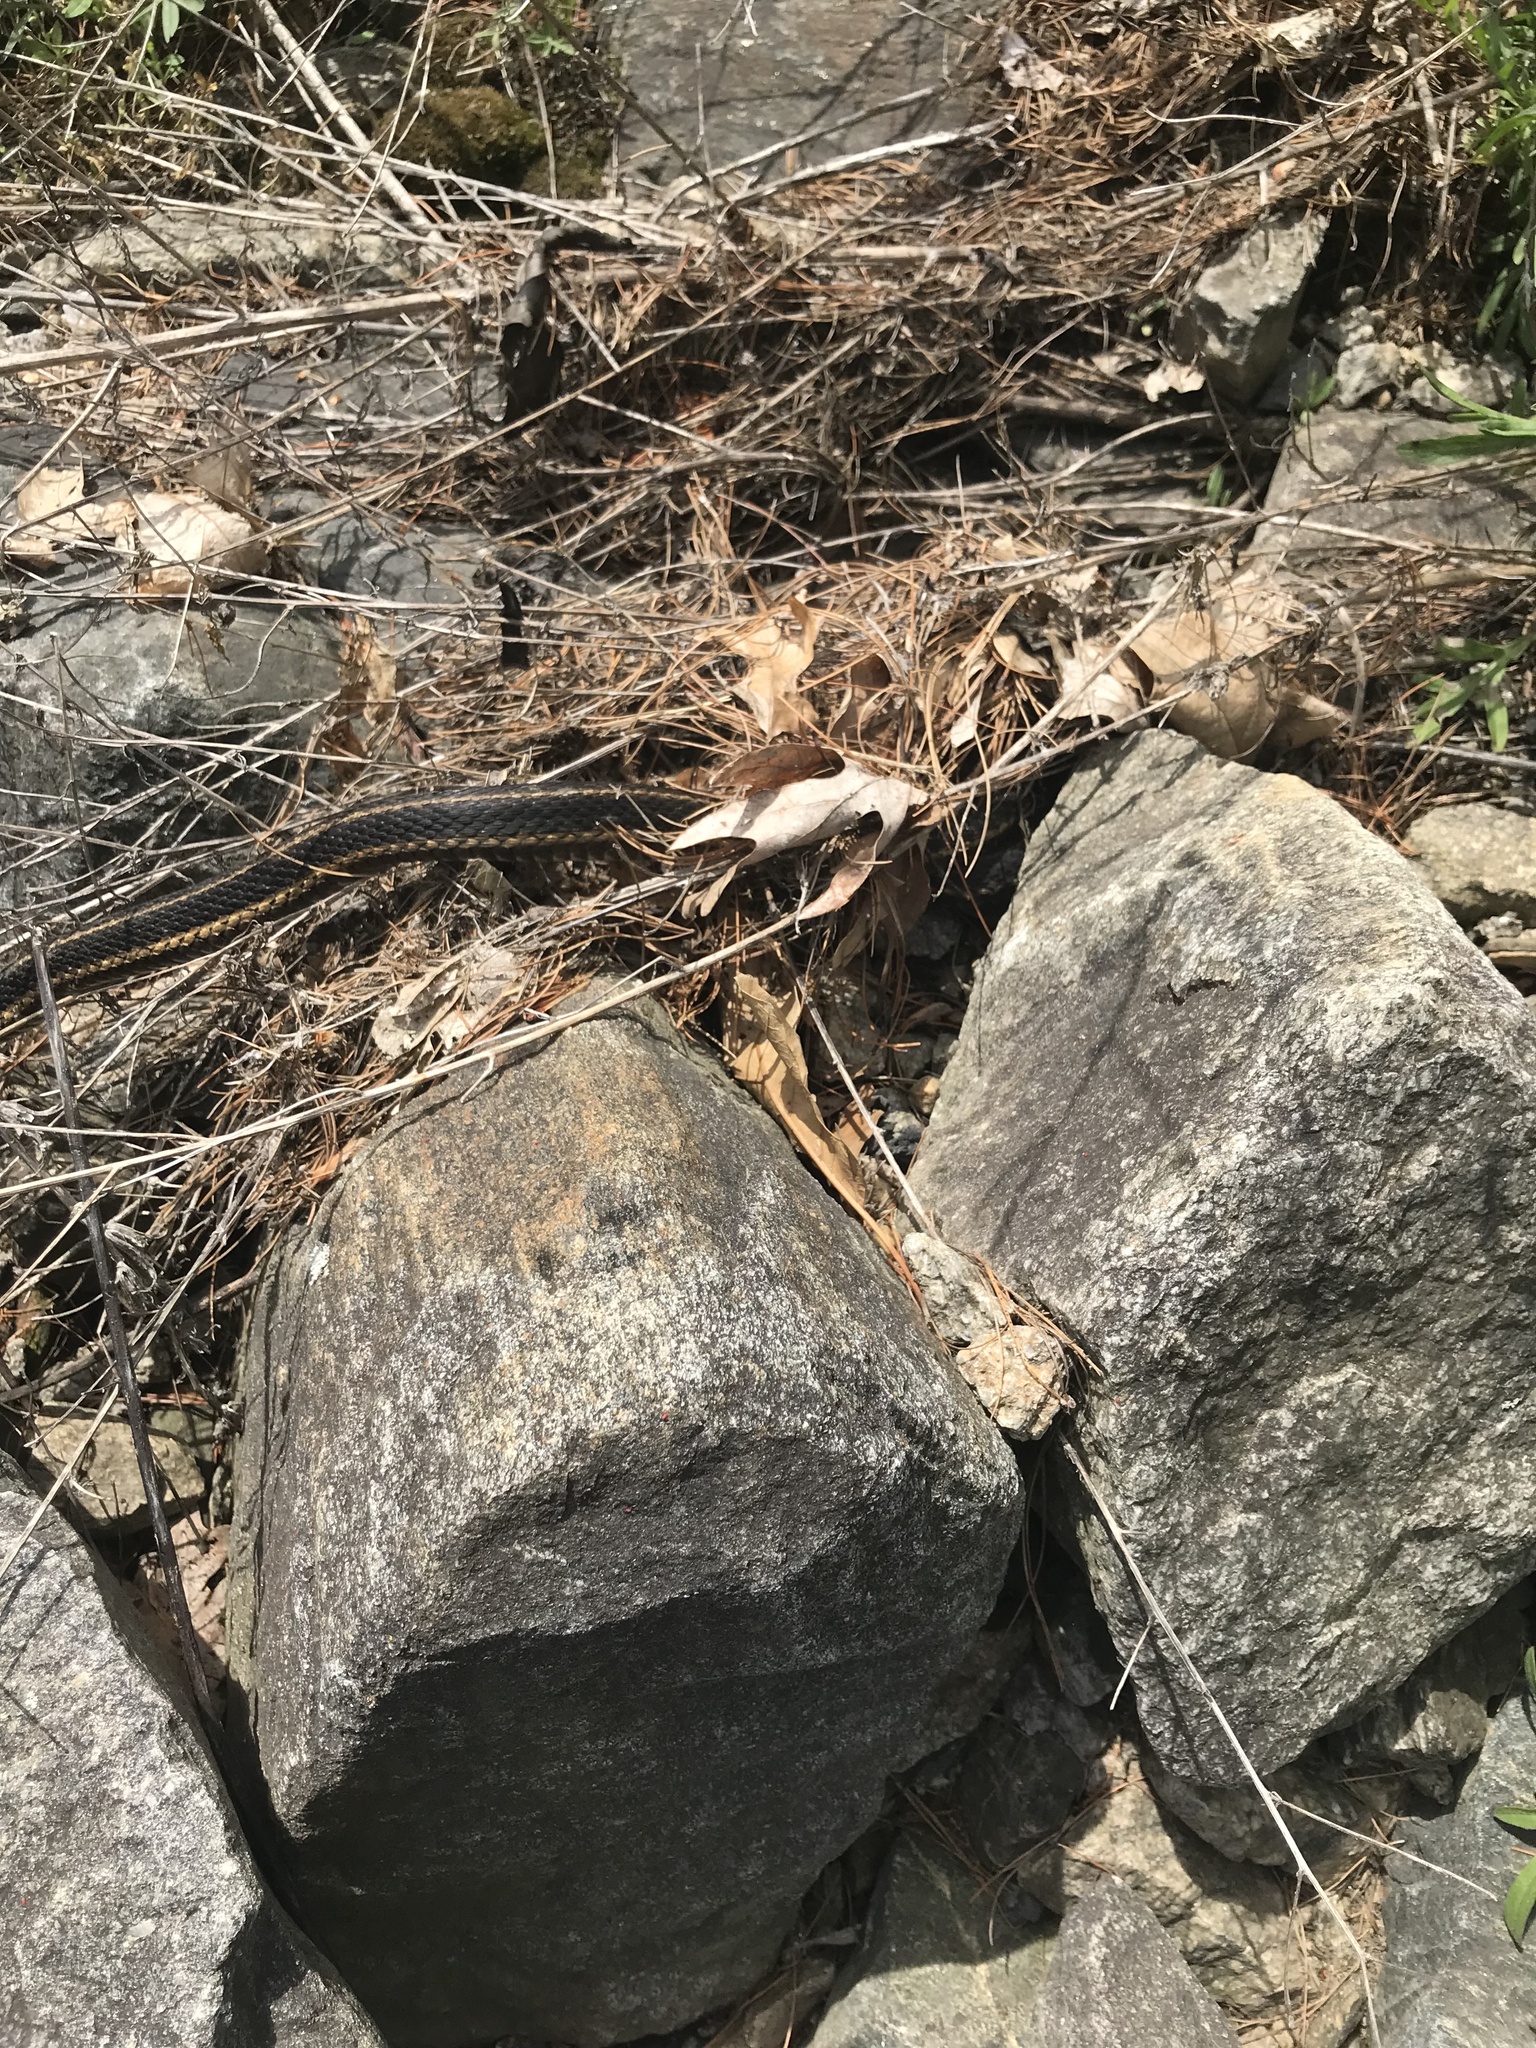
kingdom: Animalia
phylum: Chordata
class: Squamata
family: Colubridae
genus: Thamnophis
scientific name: Thamnophis sirtalis
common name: Common garter snake
